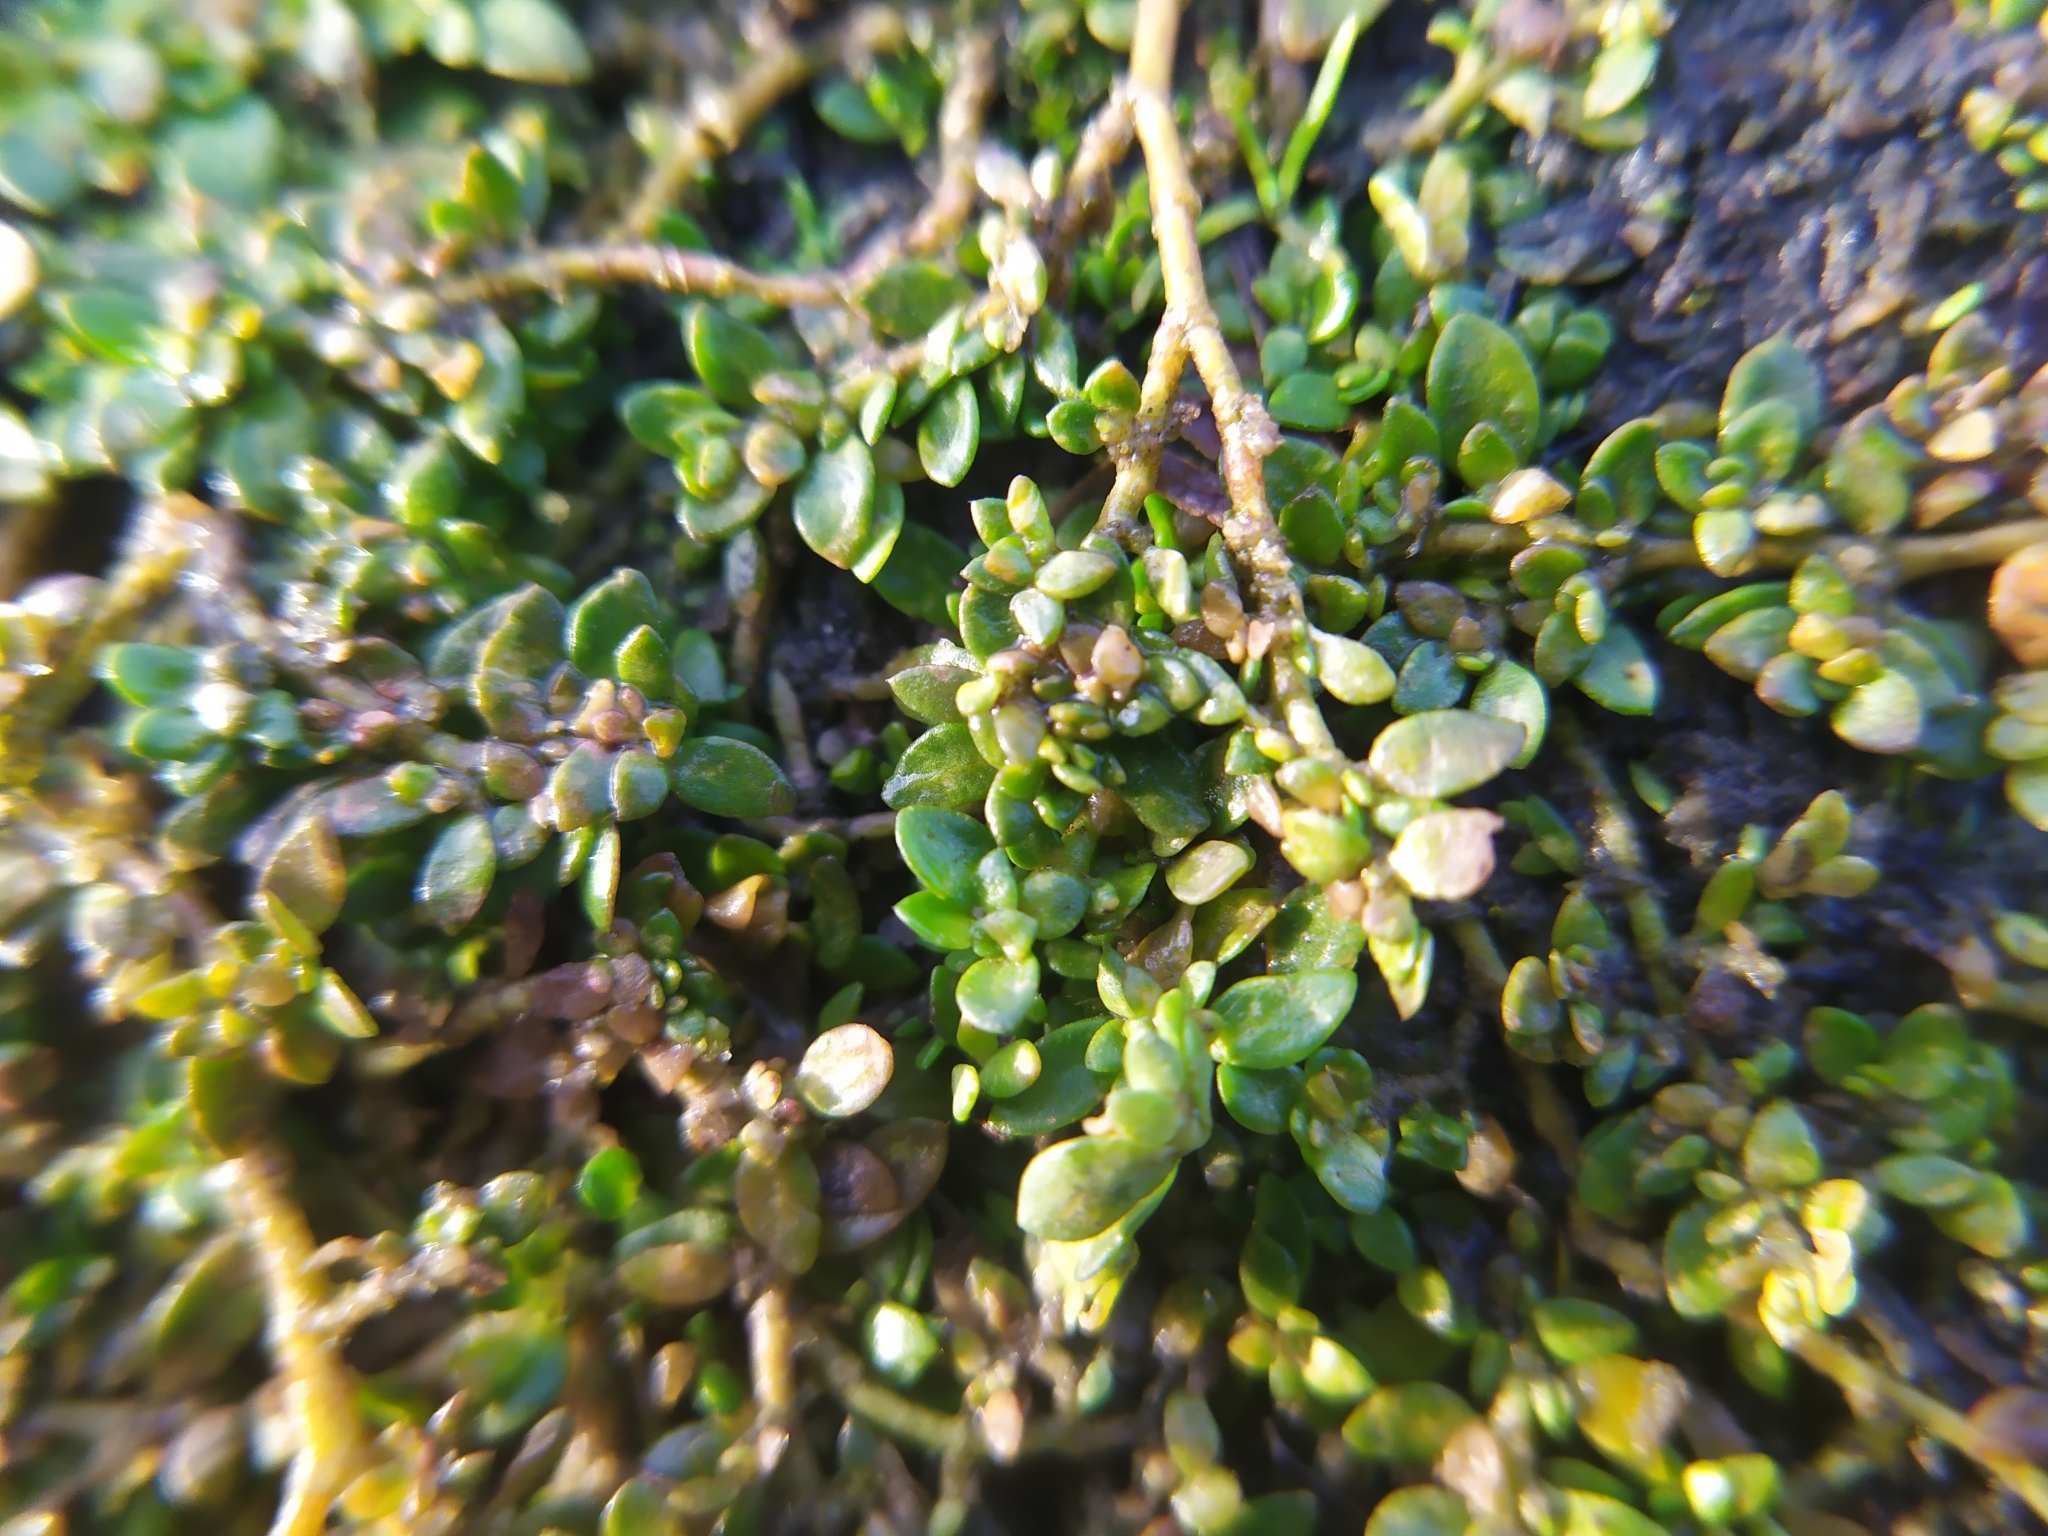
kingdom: Plantae
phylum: Tracheophyta
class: Magnoliopsida
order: Caryophyllales
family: Caryophyllaceae
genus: Herniaria
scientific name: Herniaria glabra
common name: Smooth rupturewort
